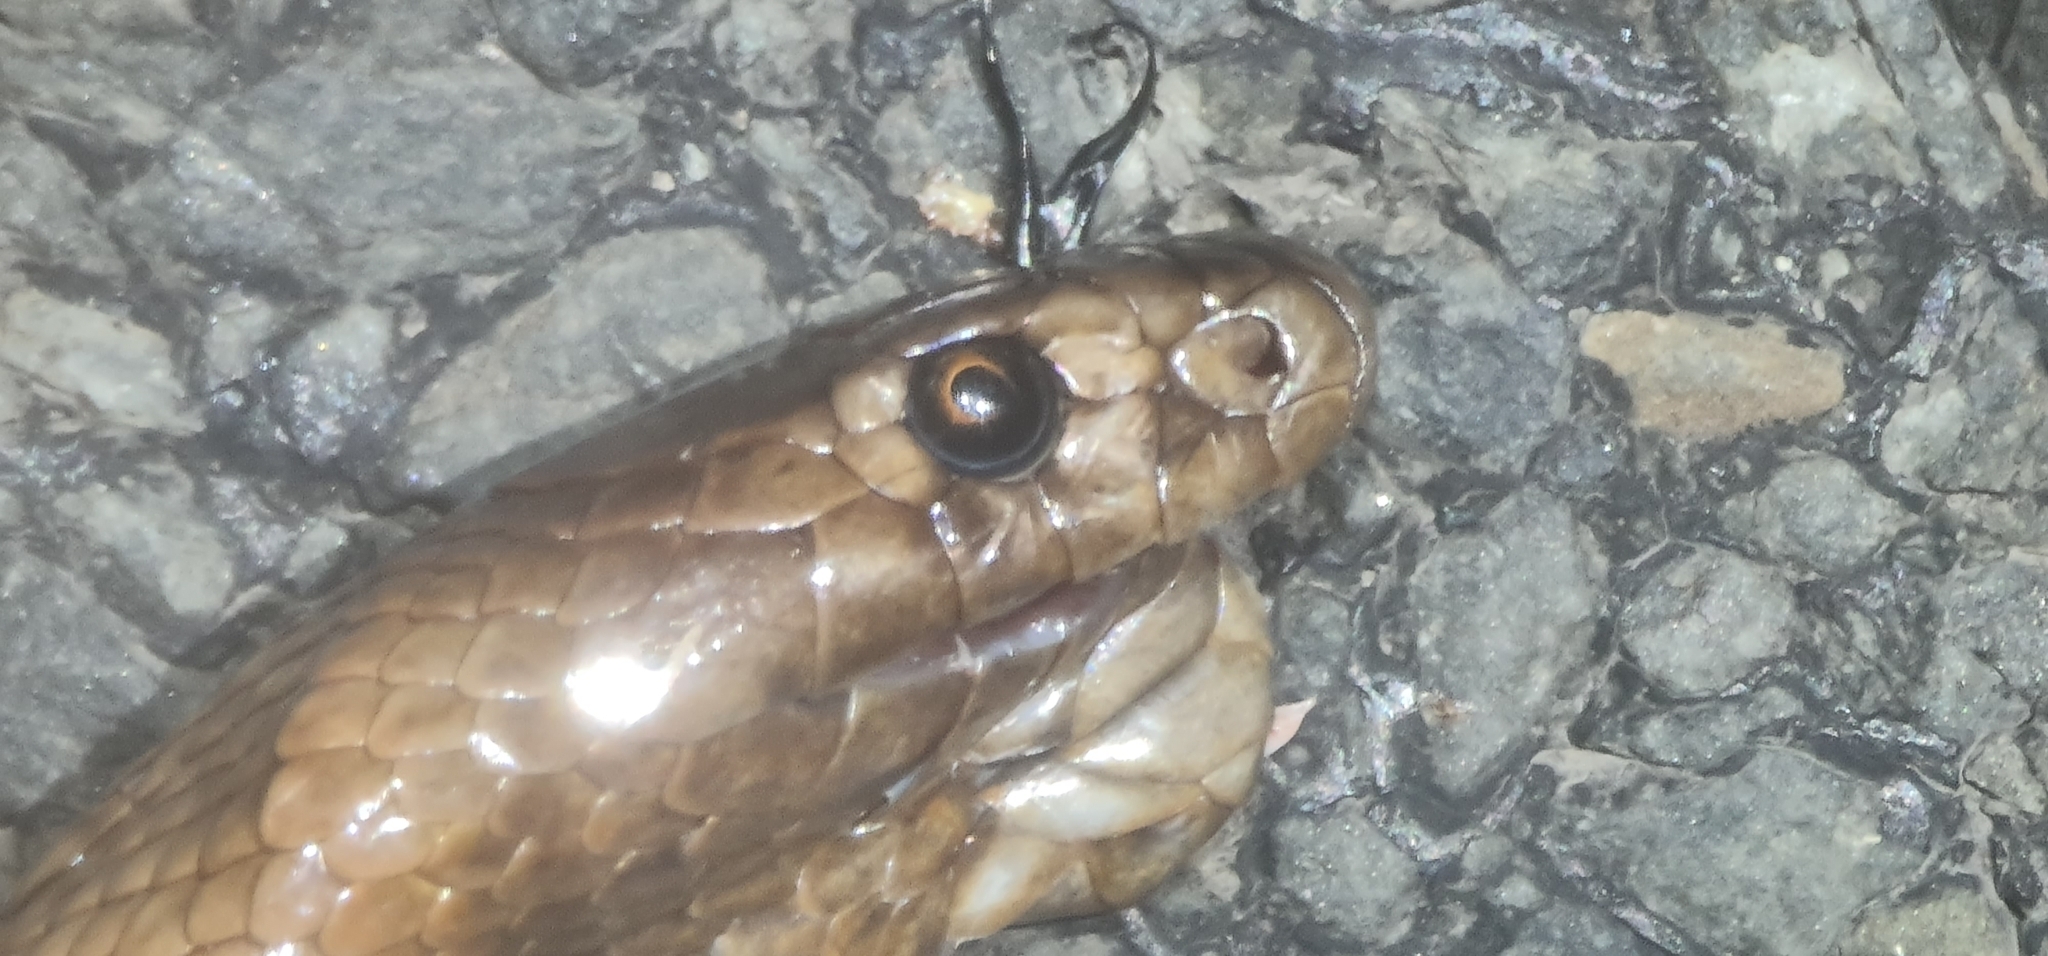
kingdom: Animalia
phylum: Chordata
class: Squamata
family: Elapidae
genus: Pseudonaja
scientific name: Pseudonaja aspidorhyncha
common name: Strap-snouted brown snake
